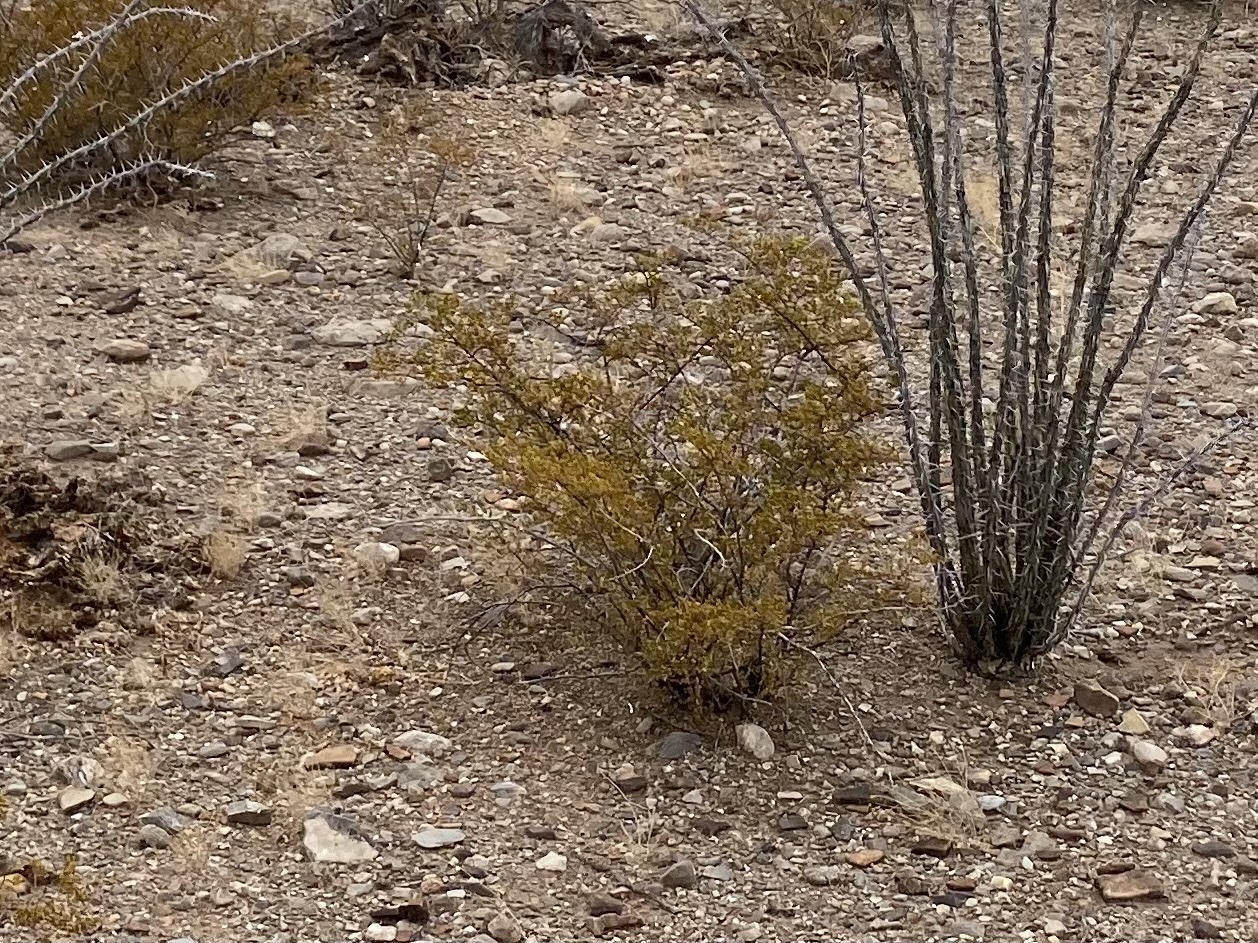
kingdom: Plantae
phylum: Tracheophyta
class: Magnoliopsida
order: Zygophyllales
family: Zygophyllaceae
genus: Larrea
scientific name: Larrea tridentata
